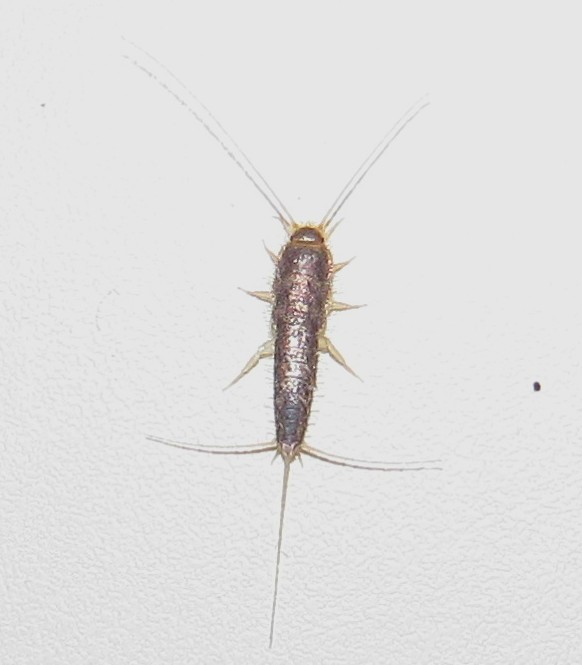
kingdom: Animalia
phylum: Arthropoda
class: Insecta
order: Zygentoma
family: Lepismatidae
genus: Ctenolepisma
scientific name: Ctenolepisma longicaudatum
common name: Silverfish
